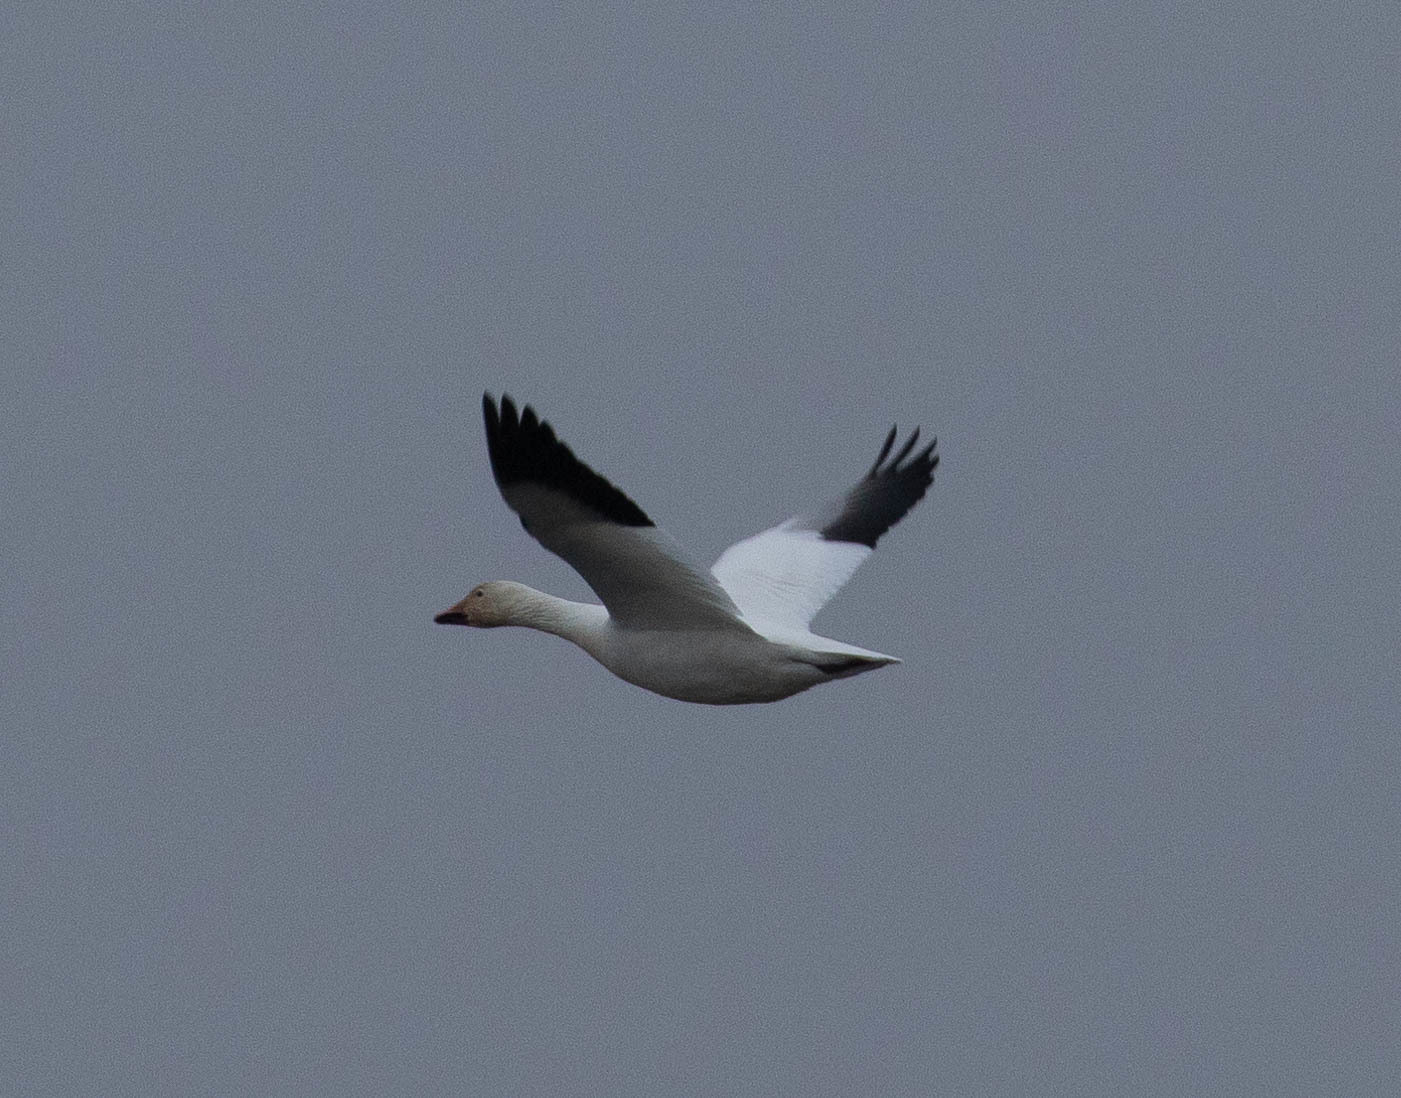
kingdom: Animalia
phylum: Chordata
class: Aves
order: Anseriformes
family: Anatidae
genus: Anser
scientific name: Anser caerulescens
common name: Snow goose
